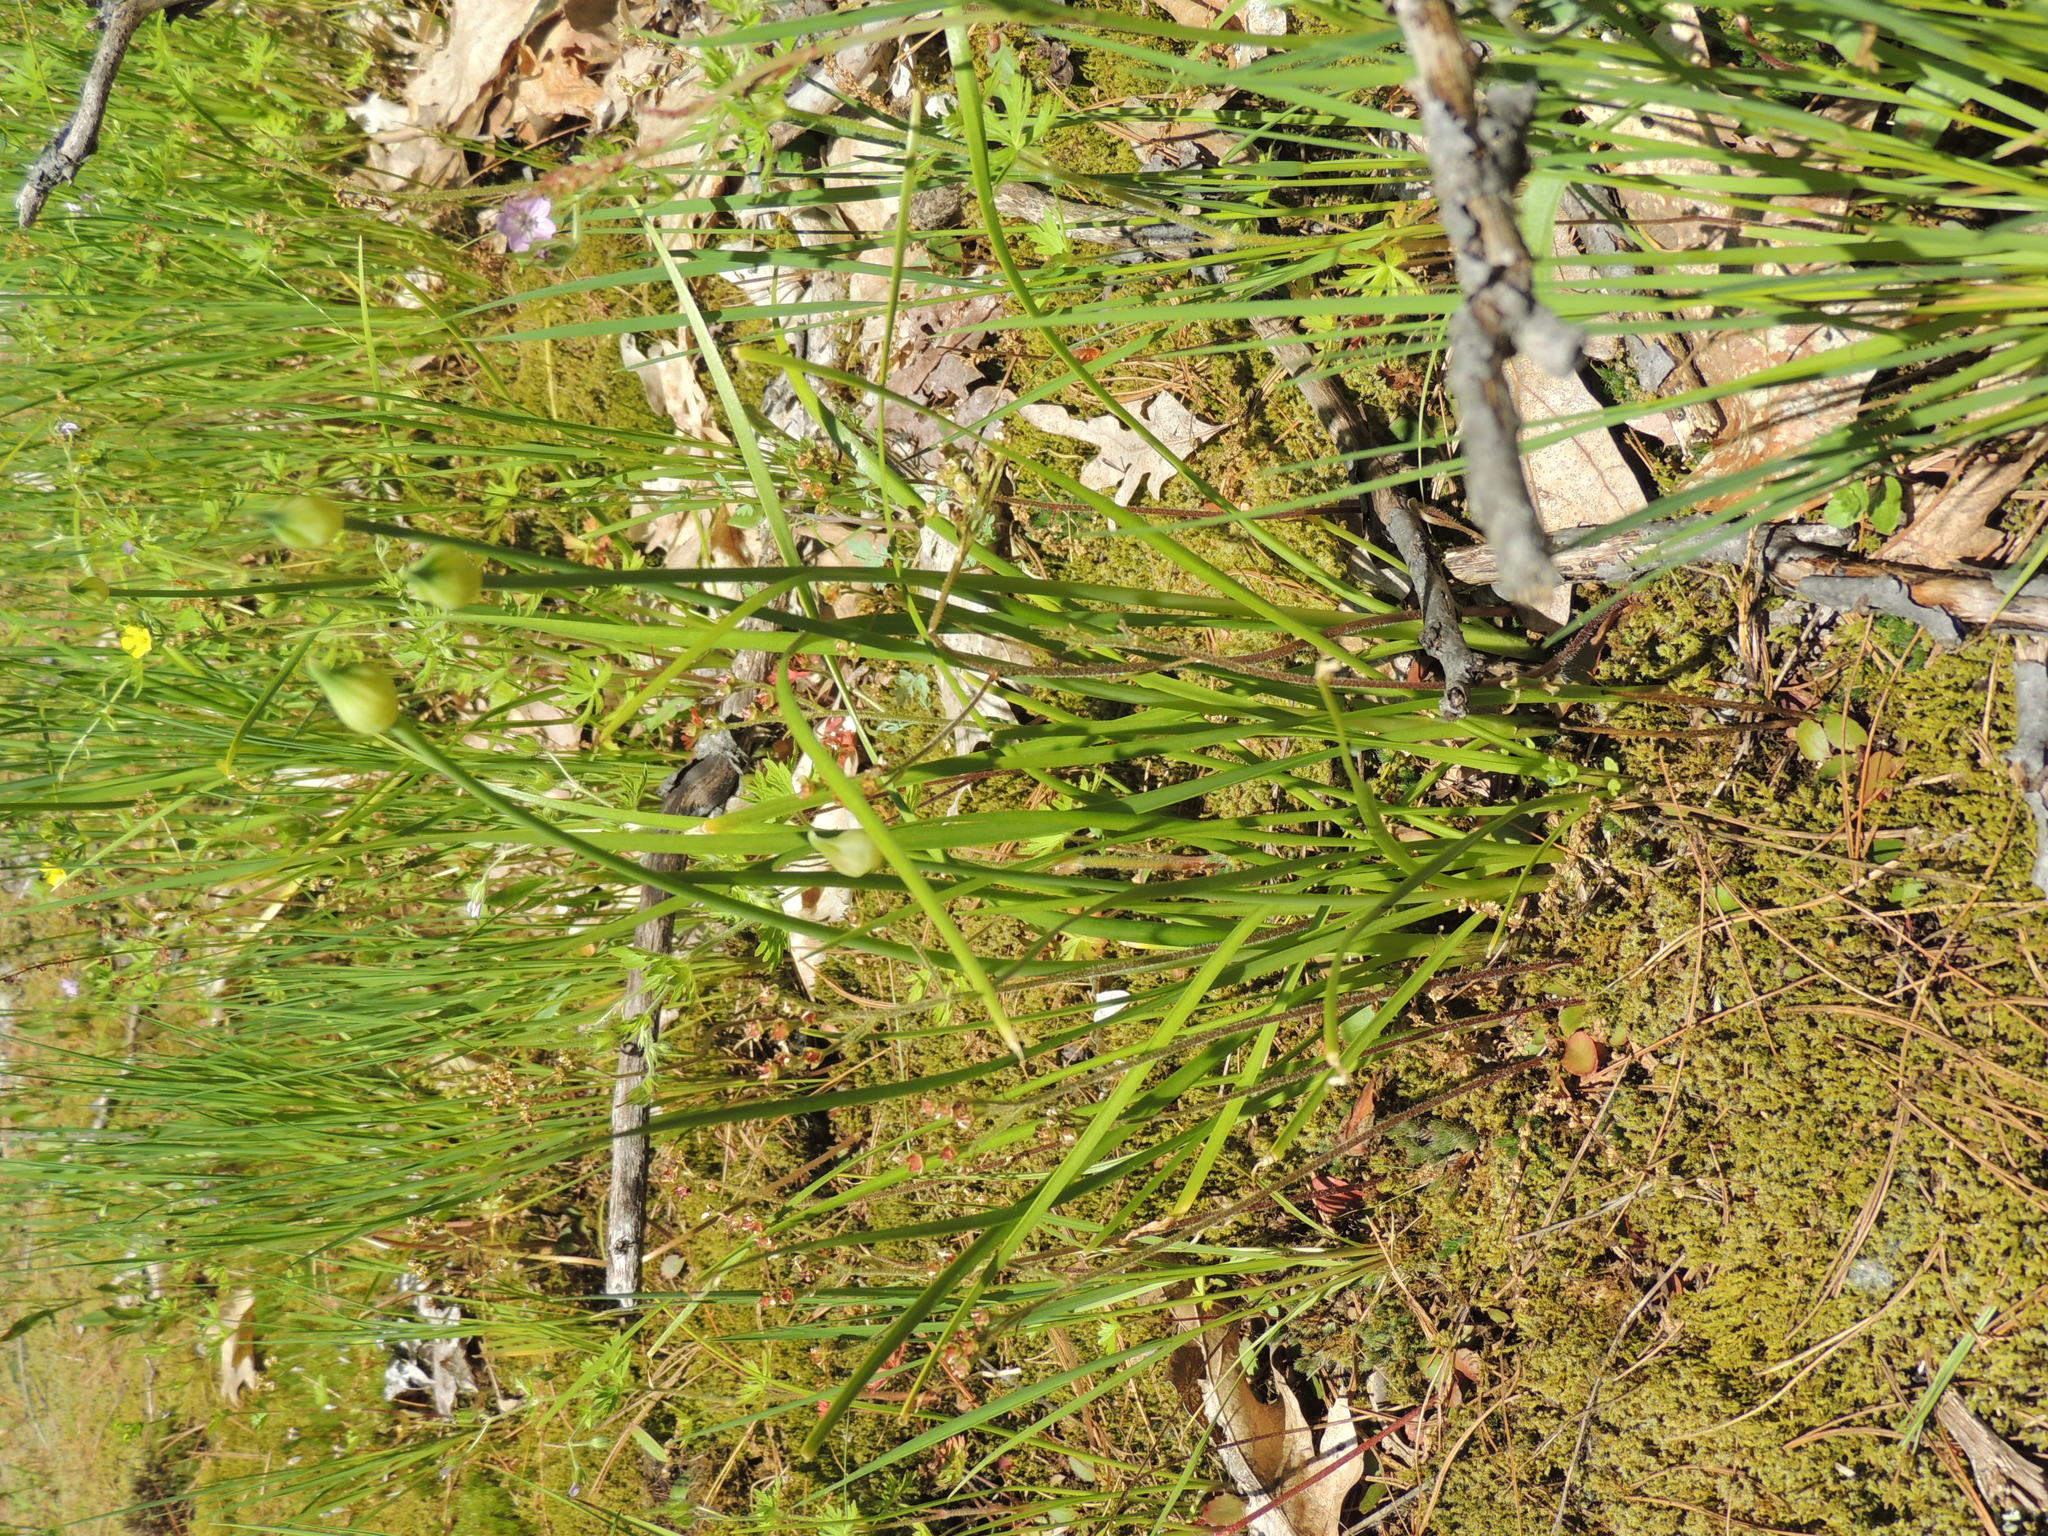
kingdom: Plantae
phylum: Tracheophyta
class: Liliopsida
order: Asparagales
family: Amaryllidaceae
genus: Allium
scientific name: Allium schoenoprasum
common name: Chives
